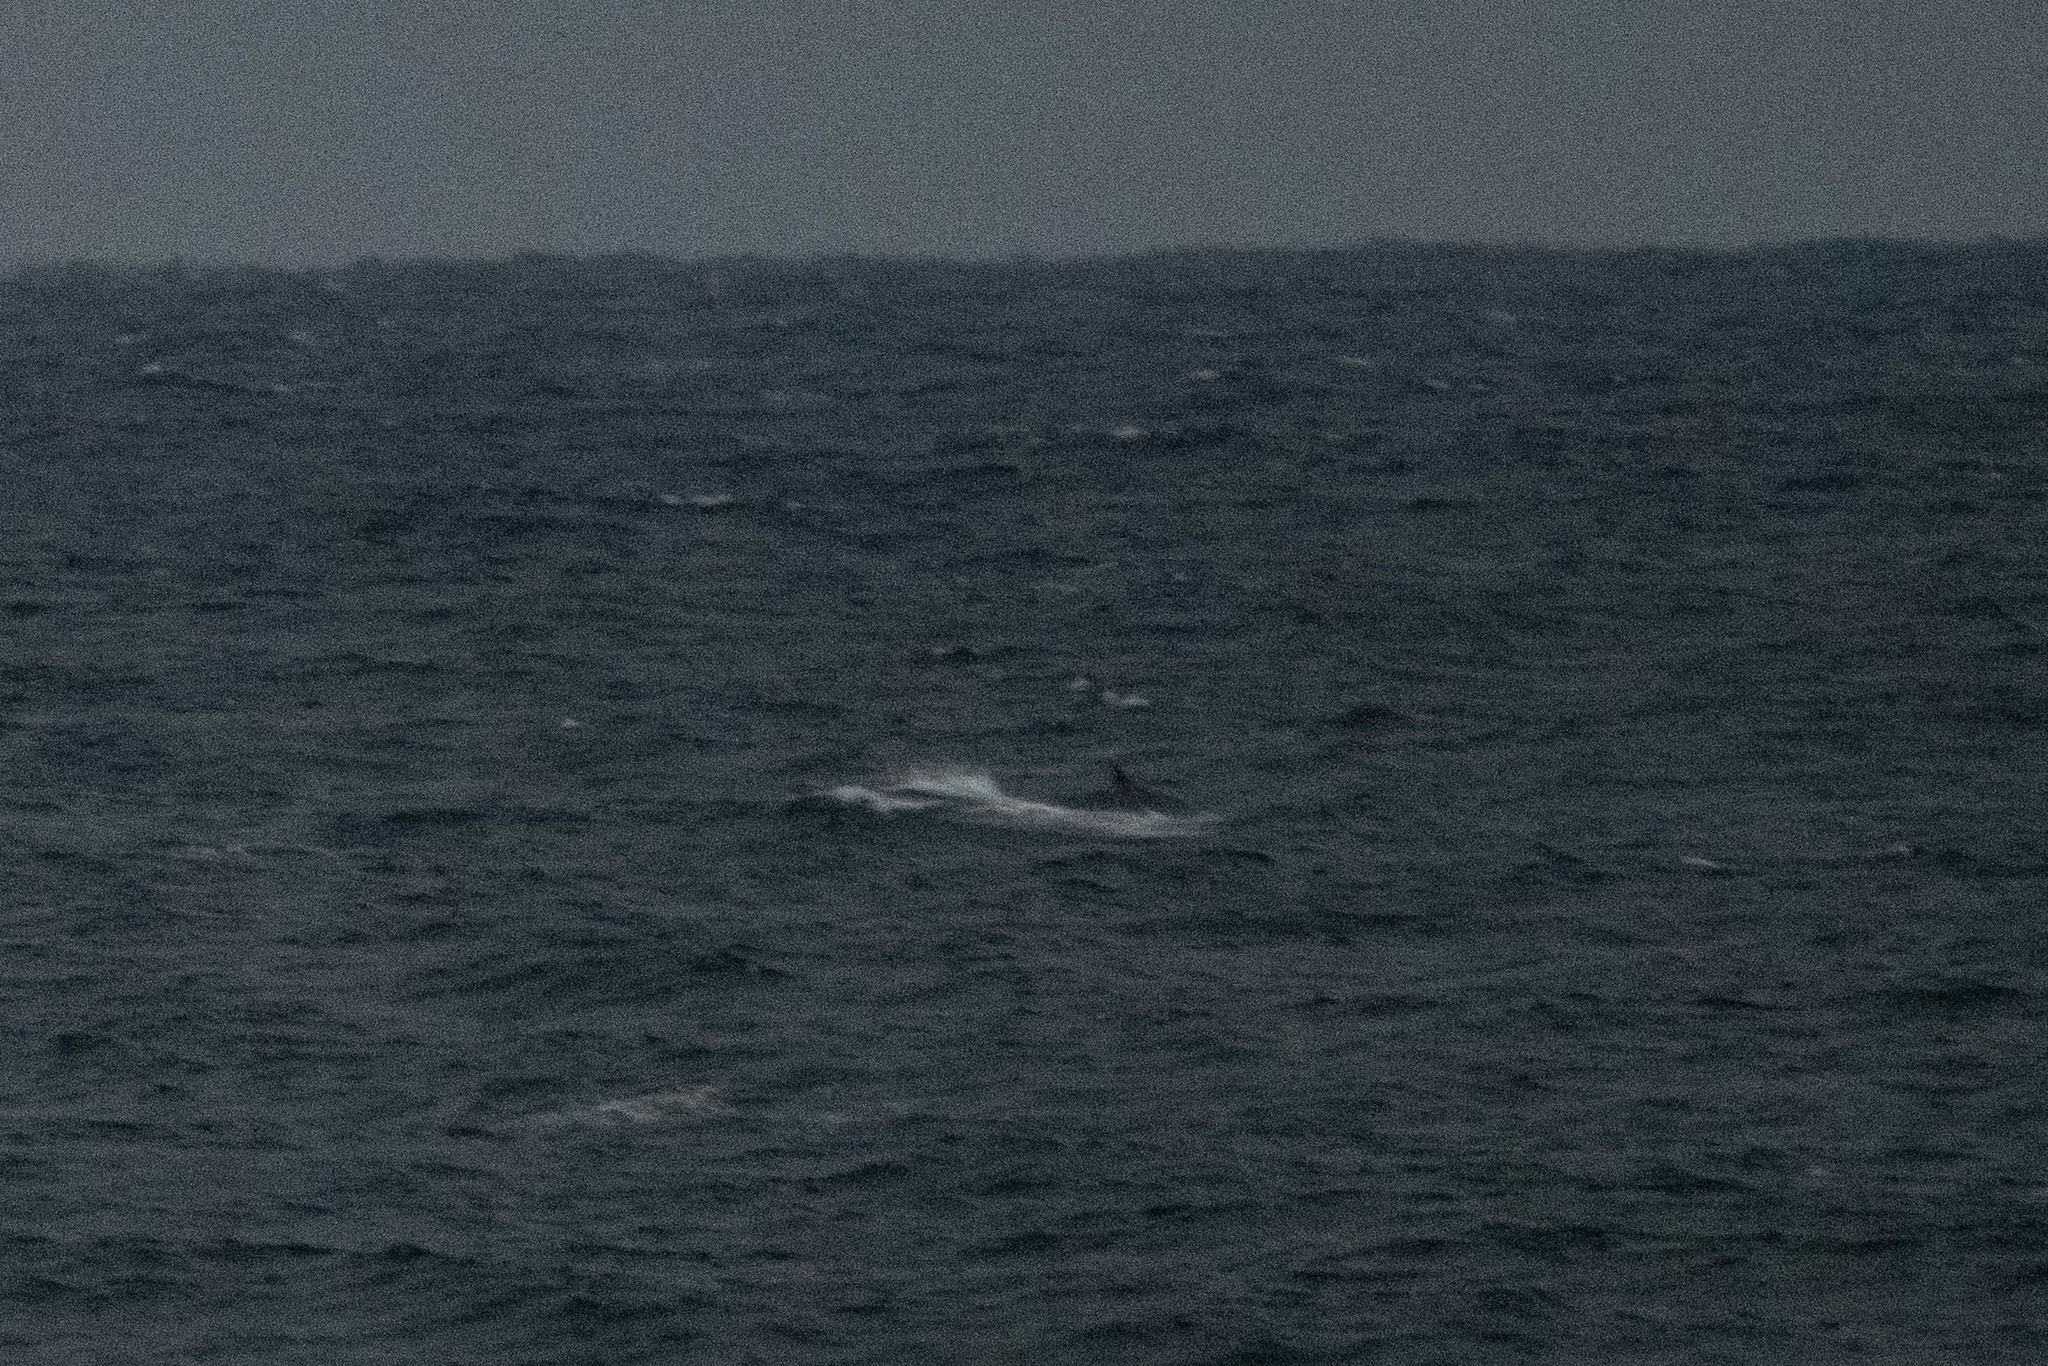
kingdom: Animalia
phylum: Chordata
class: Mammalia
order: Cetacea
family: Delphinidae
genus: Orcinus
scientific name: Orcinus orca
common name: Killer whale
